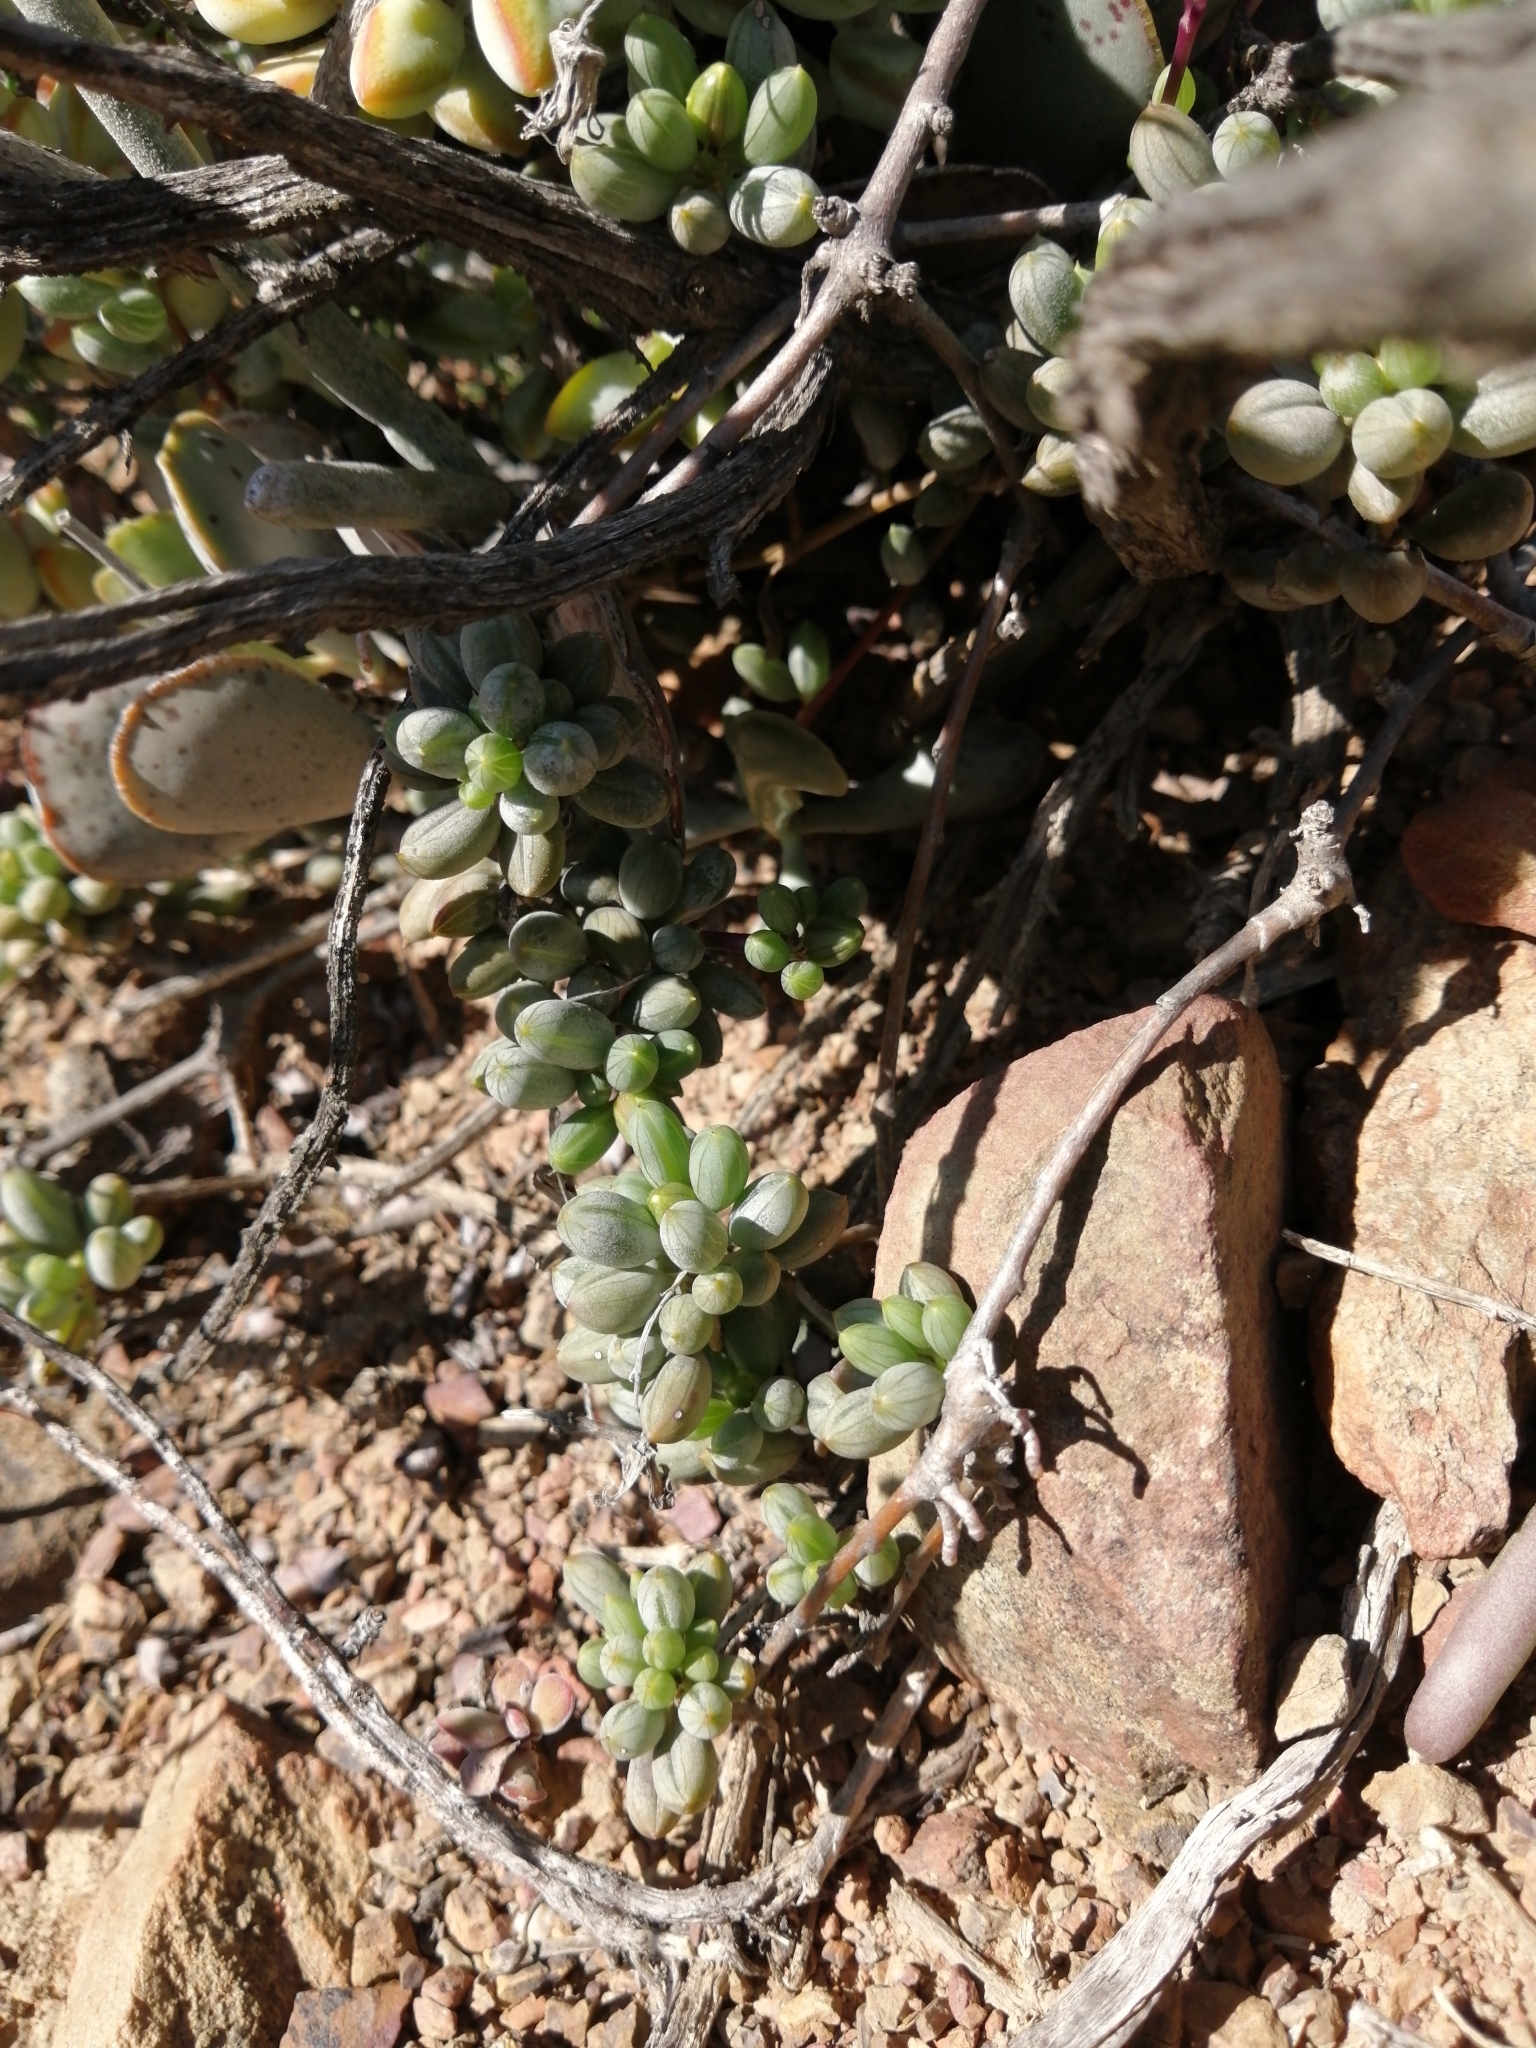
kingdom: Plantae
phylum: Tracheophyta
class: Magnoliopsida
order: Asterales
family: Asteraceae
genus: Senecio
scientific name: Senecio abbreviatus
